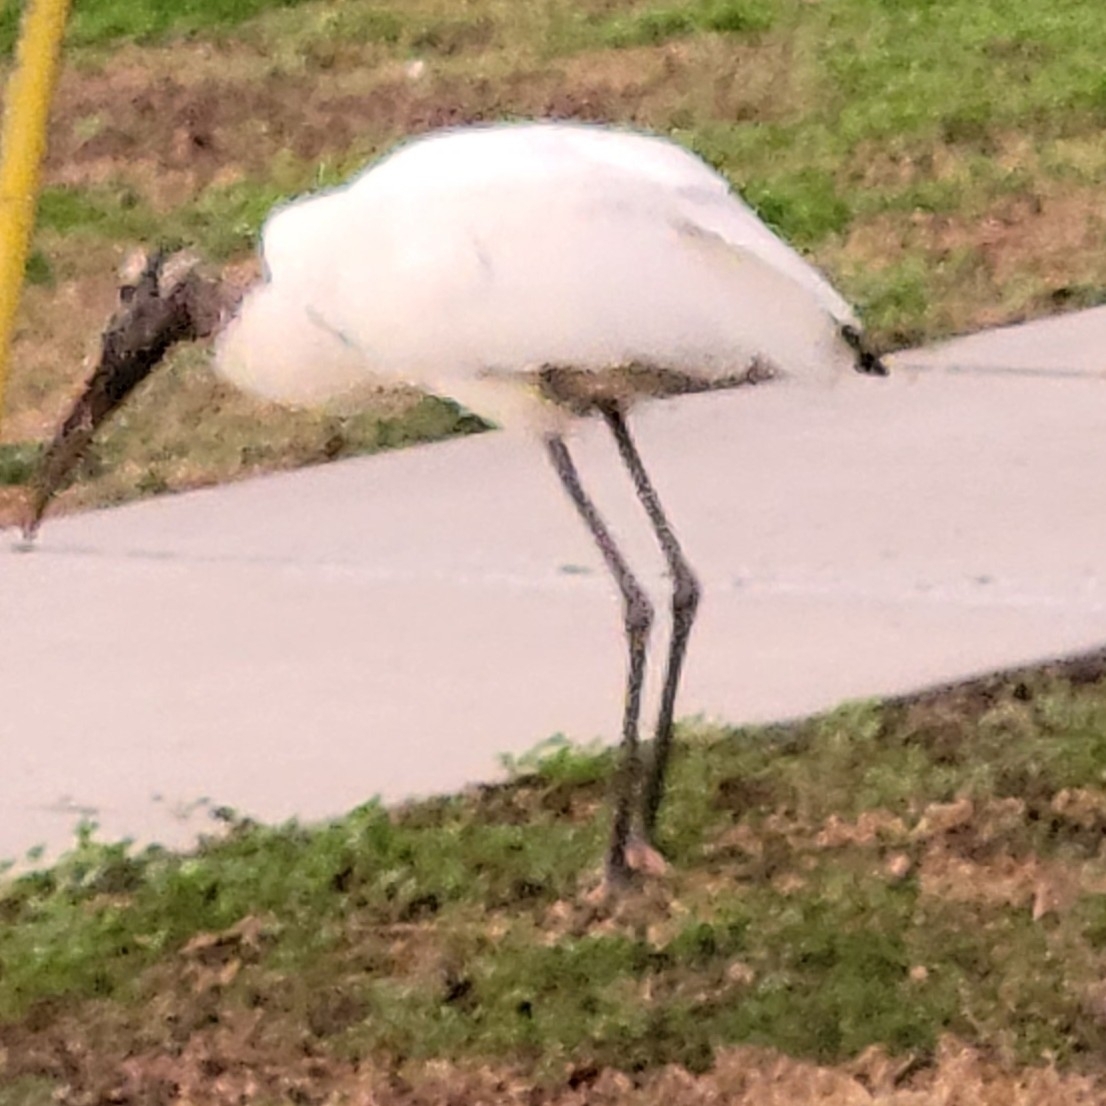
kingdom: Animalia
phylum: Chordata
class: Aves
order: Ciconiiformes
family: Ciconiidae
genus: Mycteria
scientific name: Mycteria americana
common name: Wood stork
